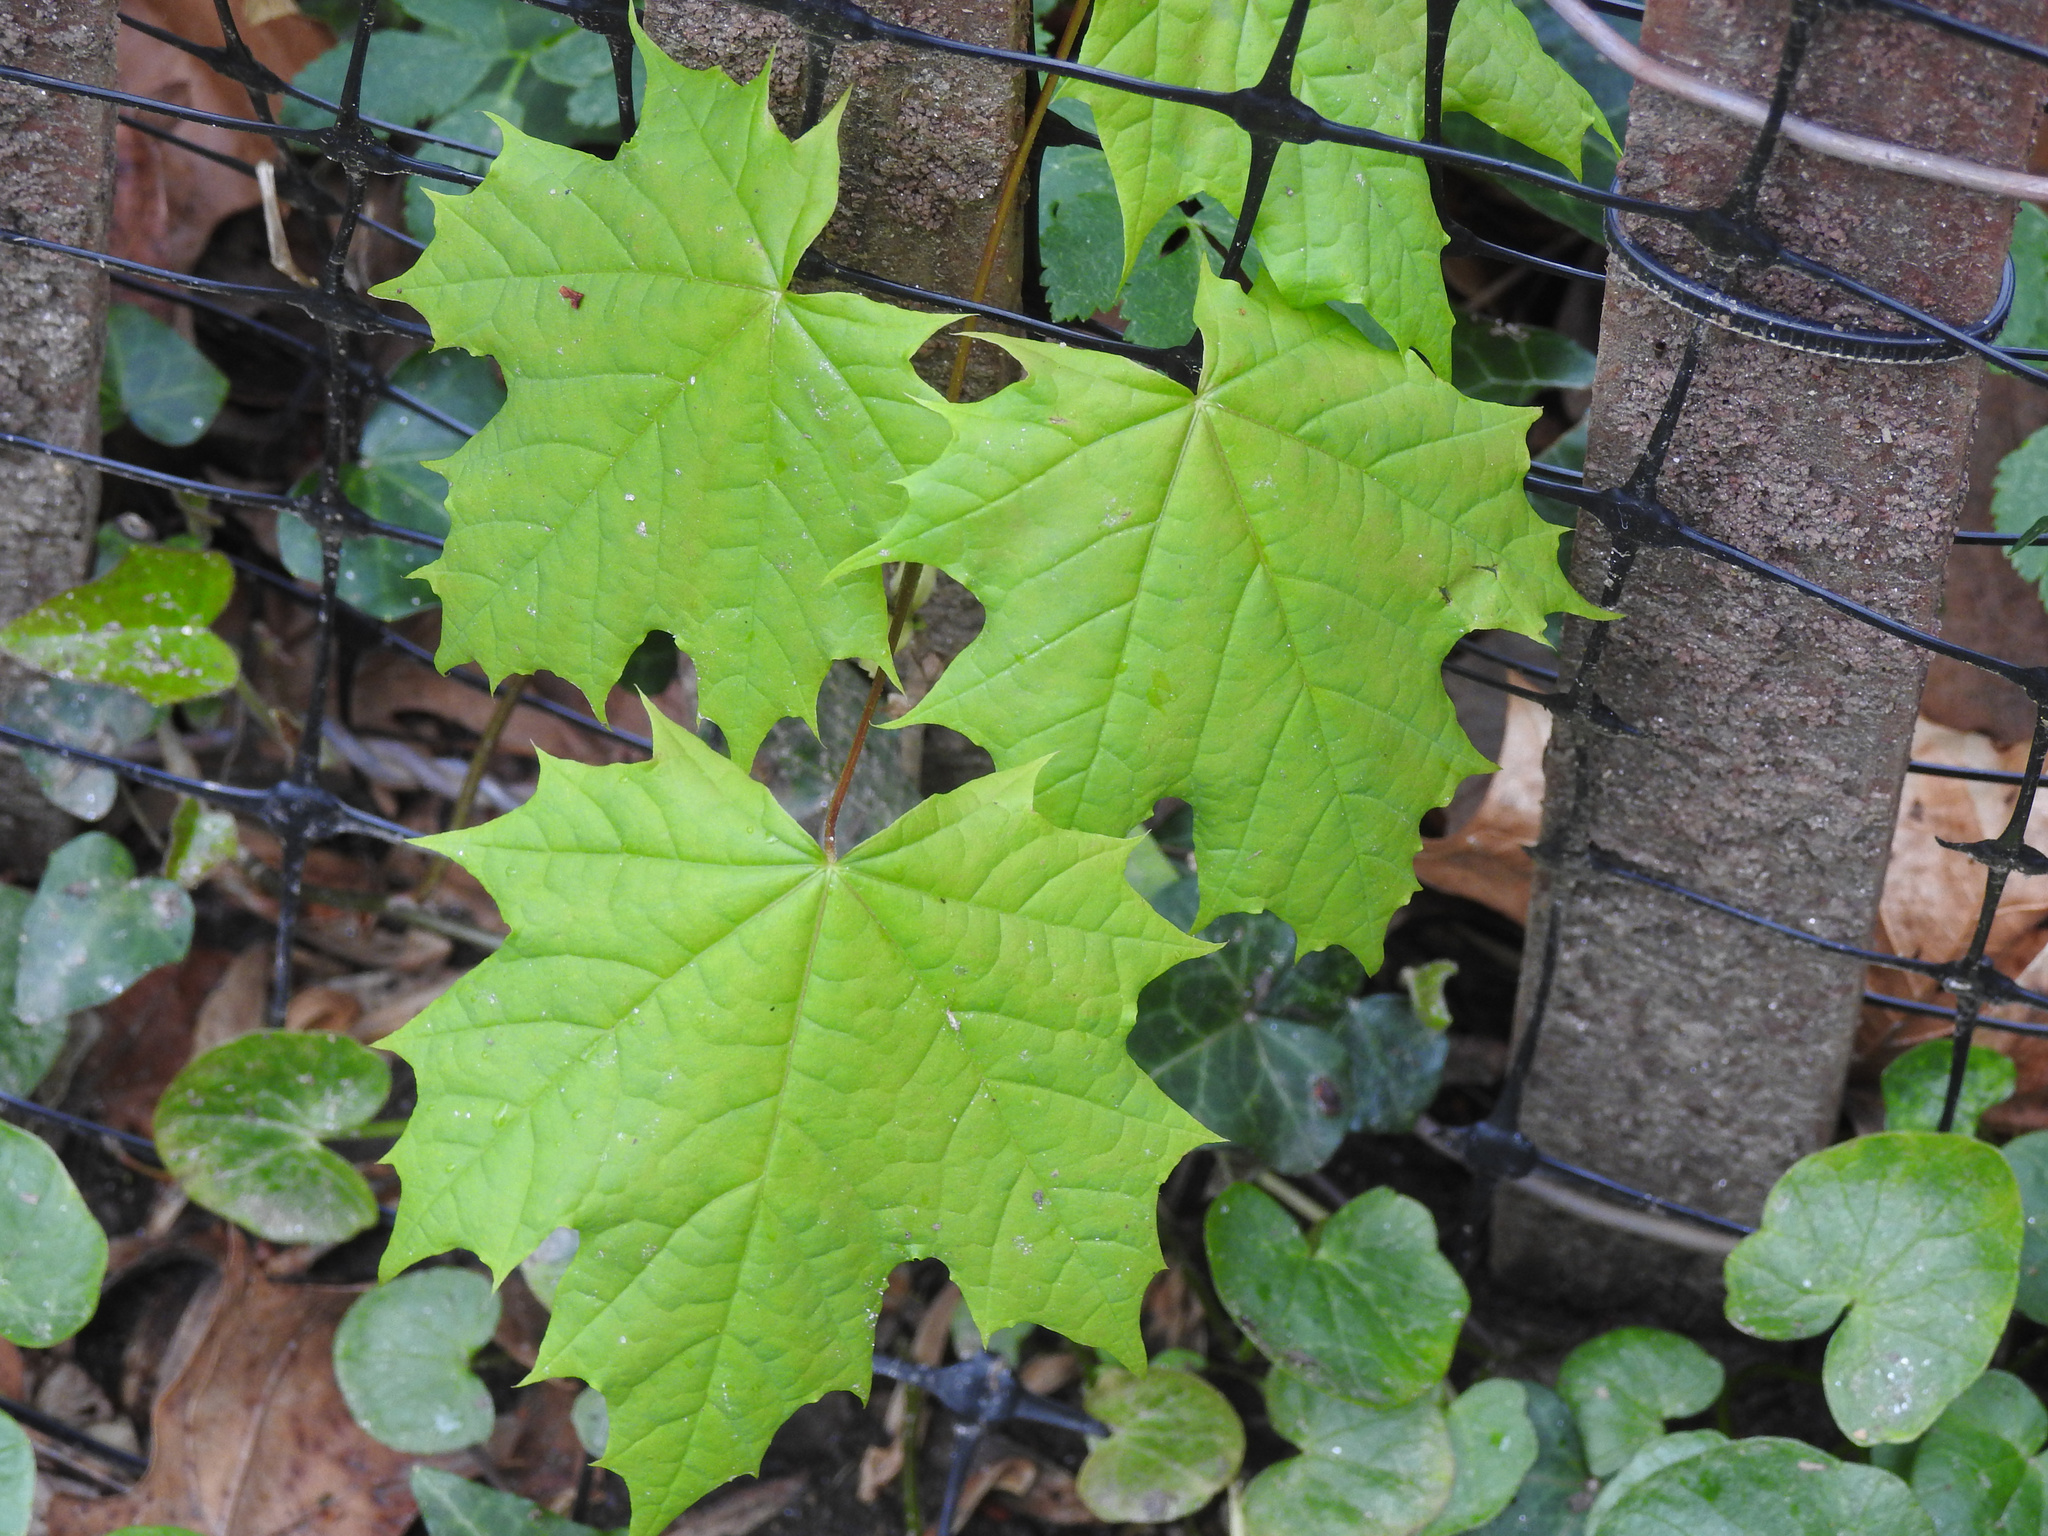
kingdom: Plantae
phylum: Tracheophyta
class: Magnoliopsida
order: Sapindales
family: Sapindaceae
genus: Acer
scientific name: Acer platanoides
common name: Norway maple
